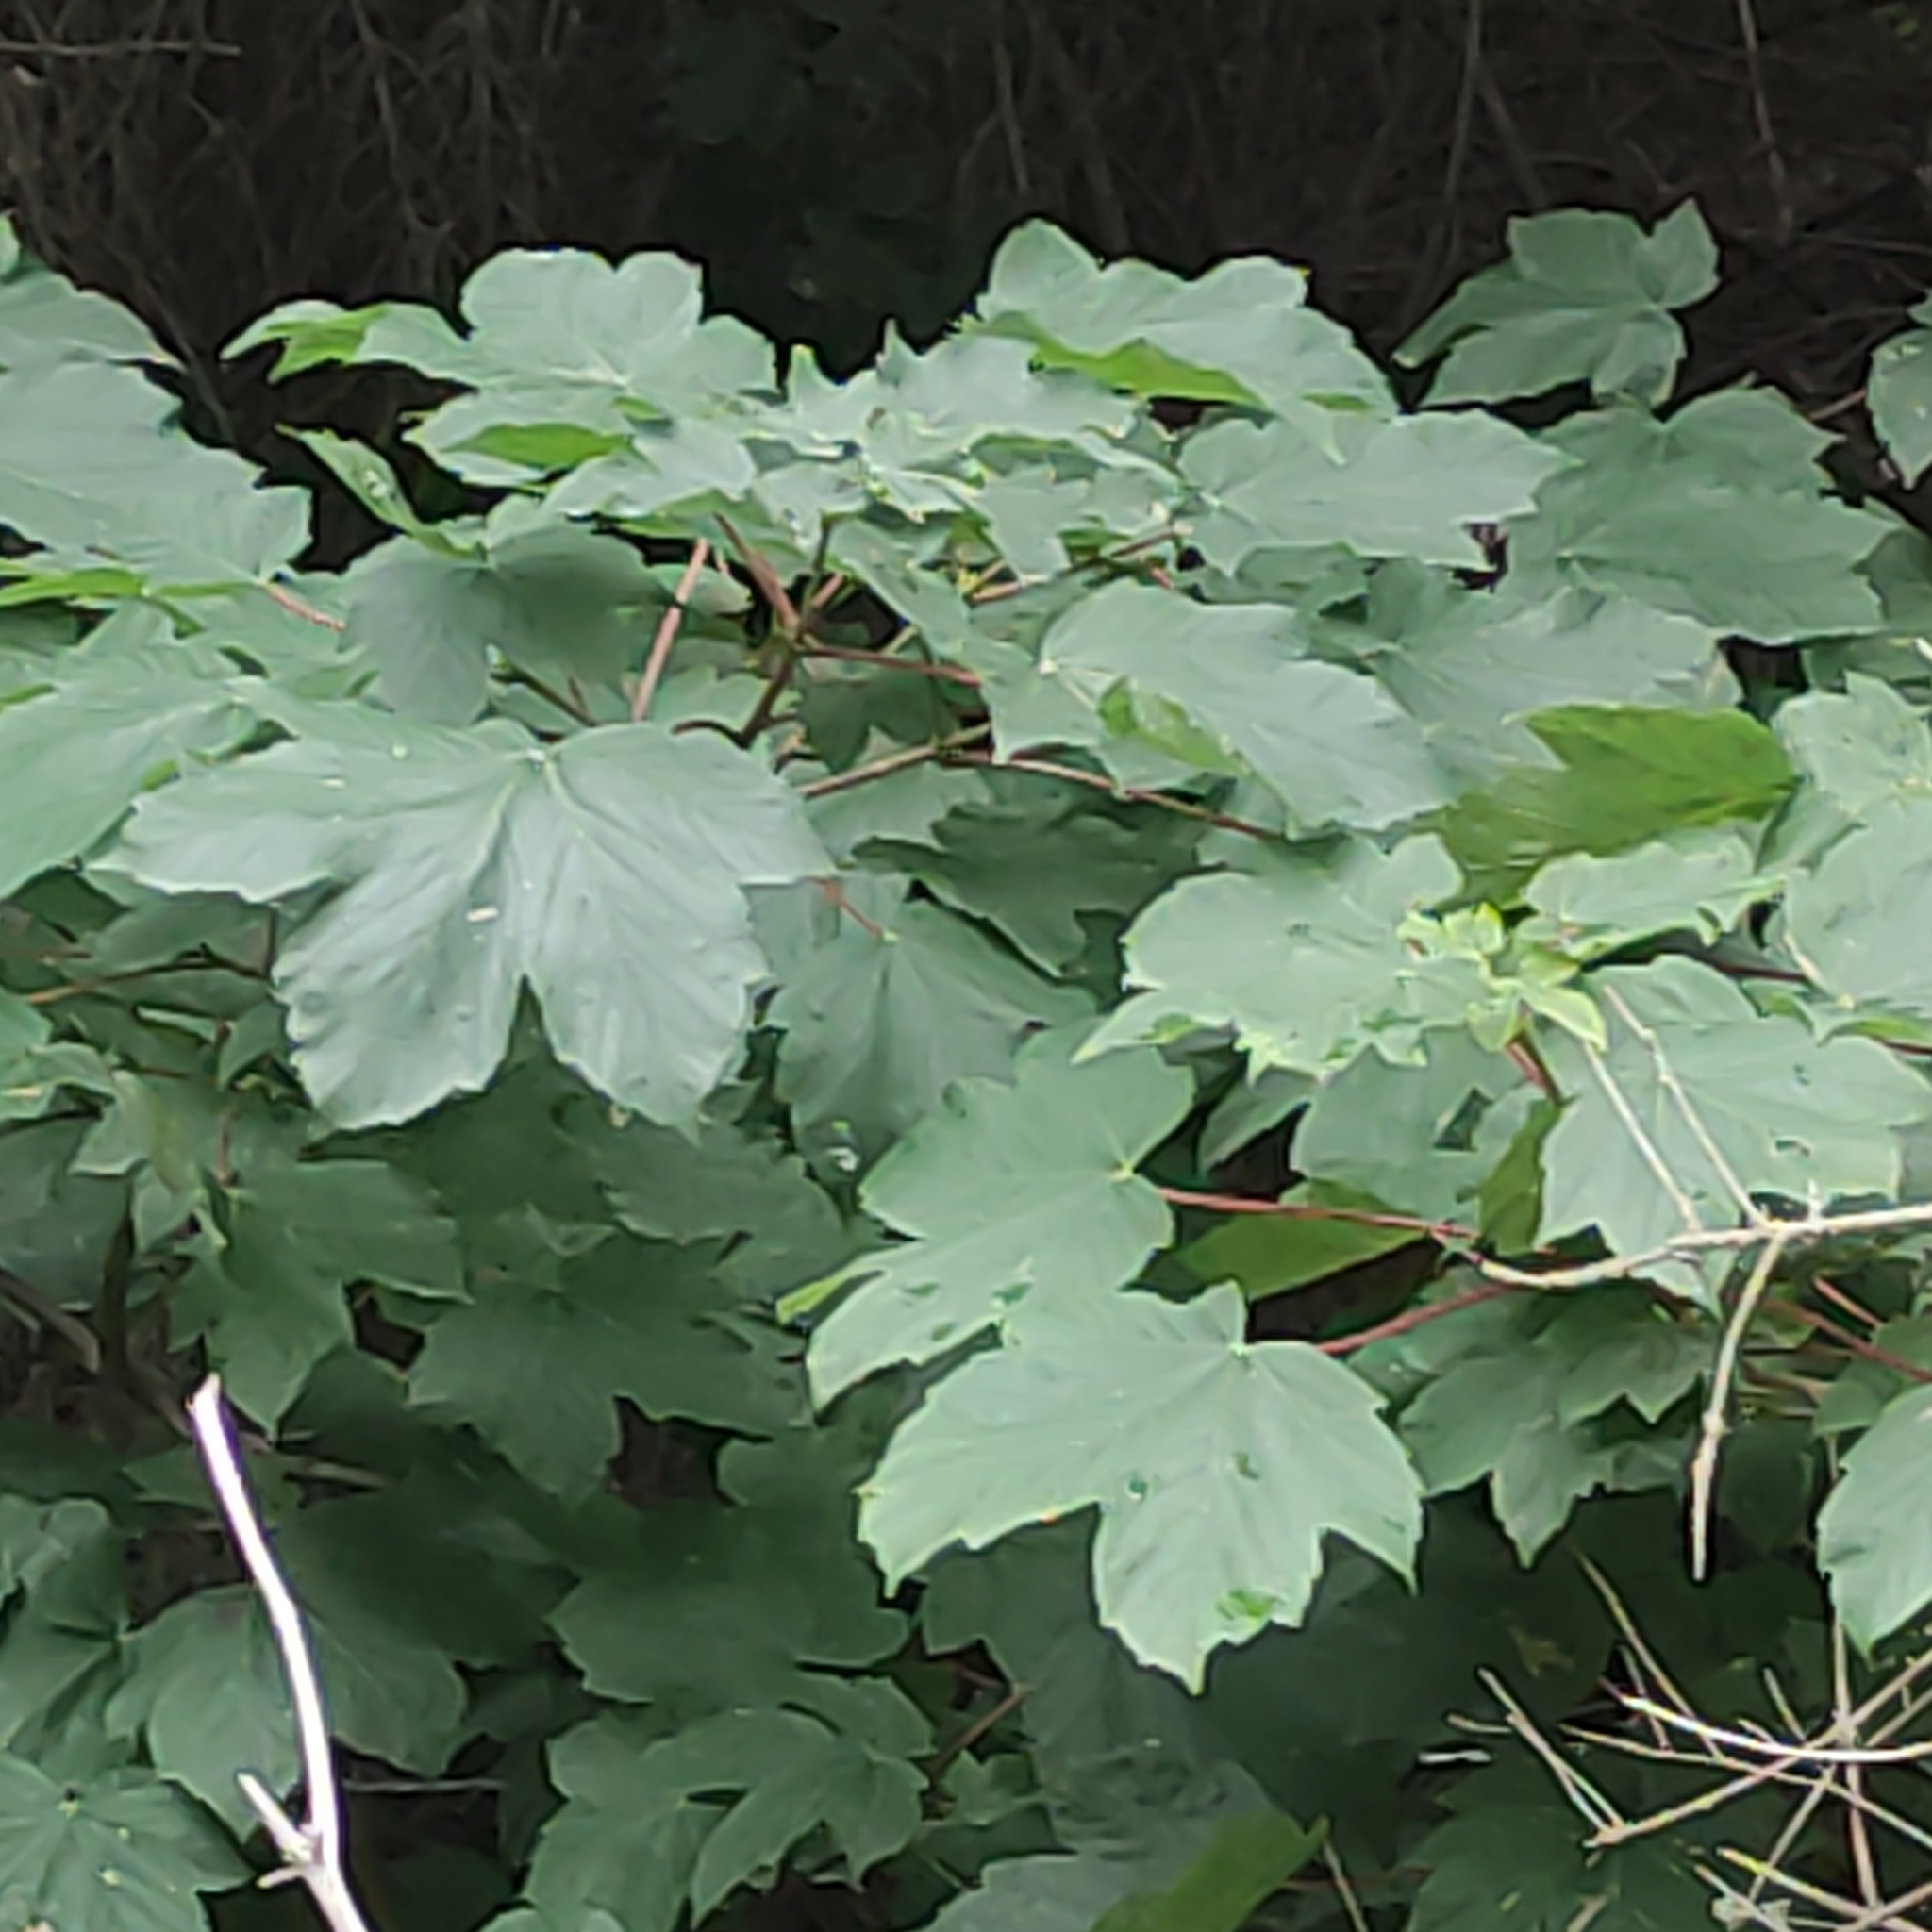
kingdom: Plantae
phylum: Tracheophyta
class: Magnoliopsida
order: Sapindales
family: Sapindaceae
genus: Acer
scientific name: Acer pseudoplatanus
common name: Sycamore
